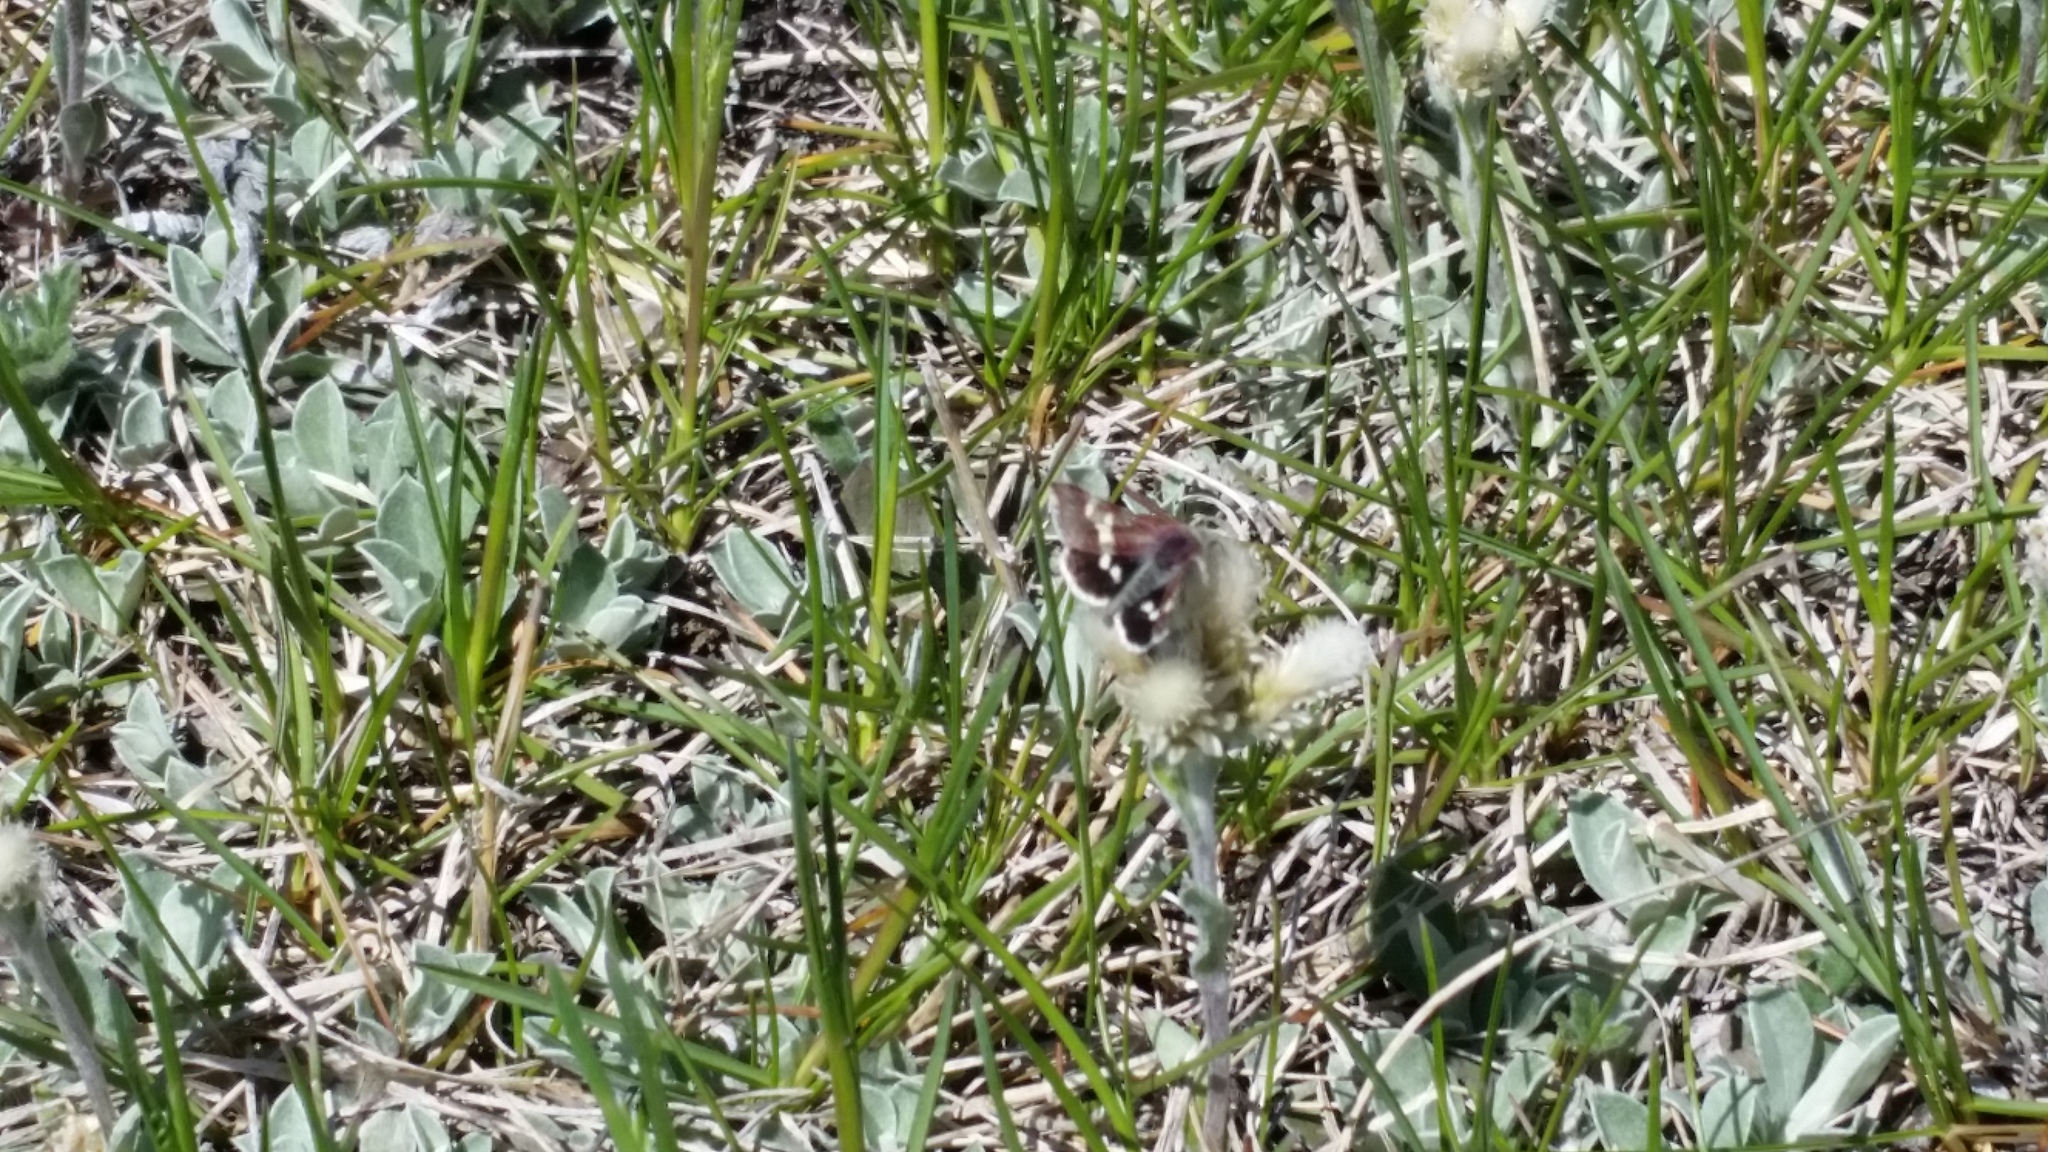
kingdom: Animalia
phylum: Arthropoda
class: Insecta
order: Lepidoptera
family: Noctuidae
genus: Eutricopis
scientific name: Eutricopis nexilis
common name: White-spotted midget moth
